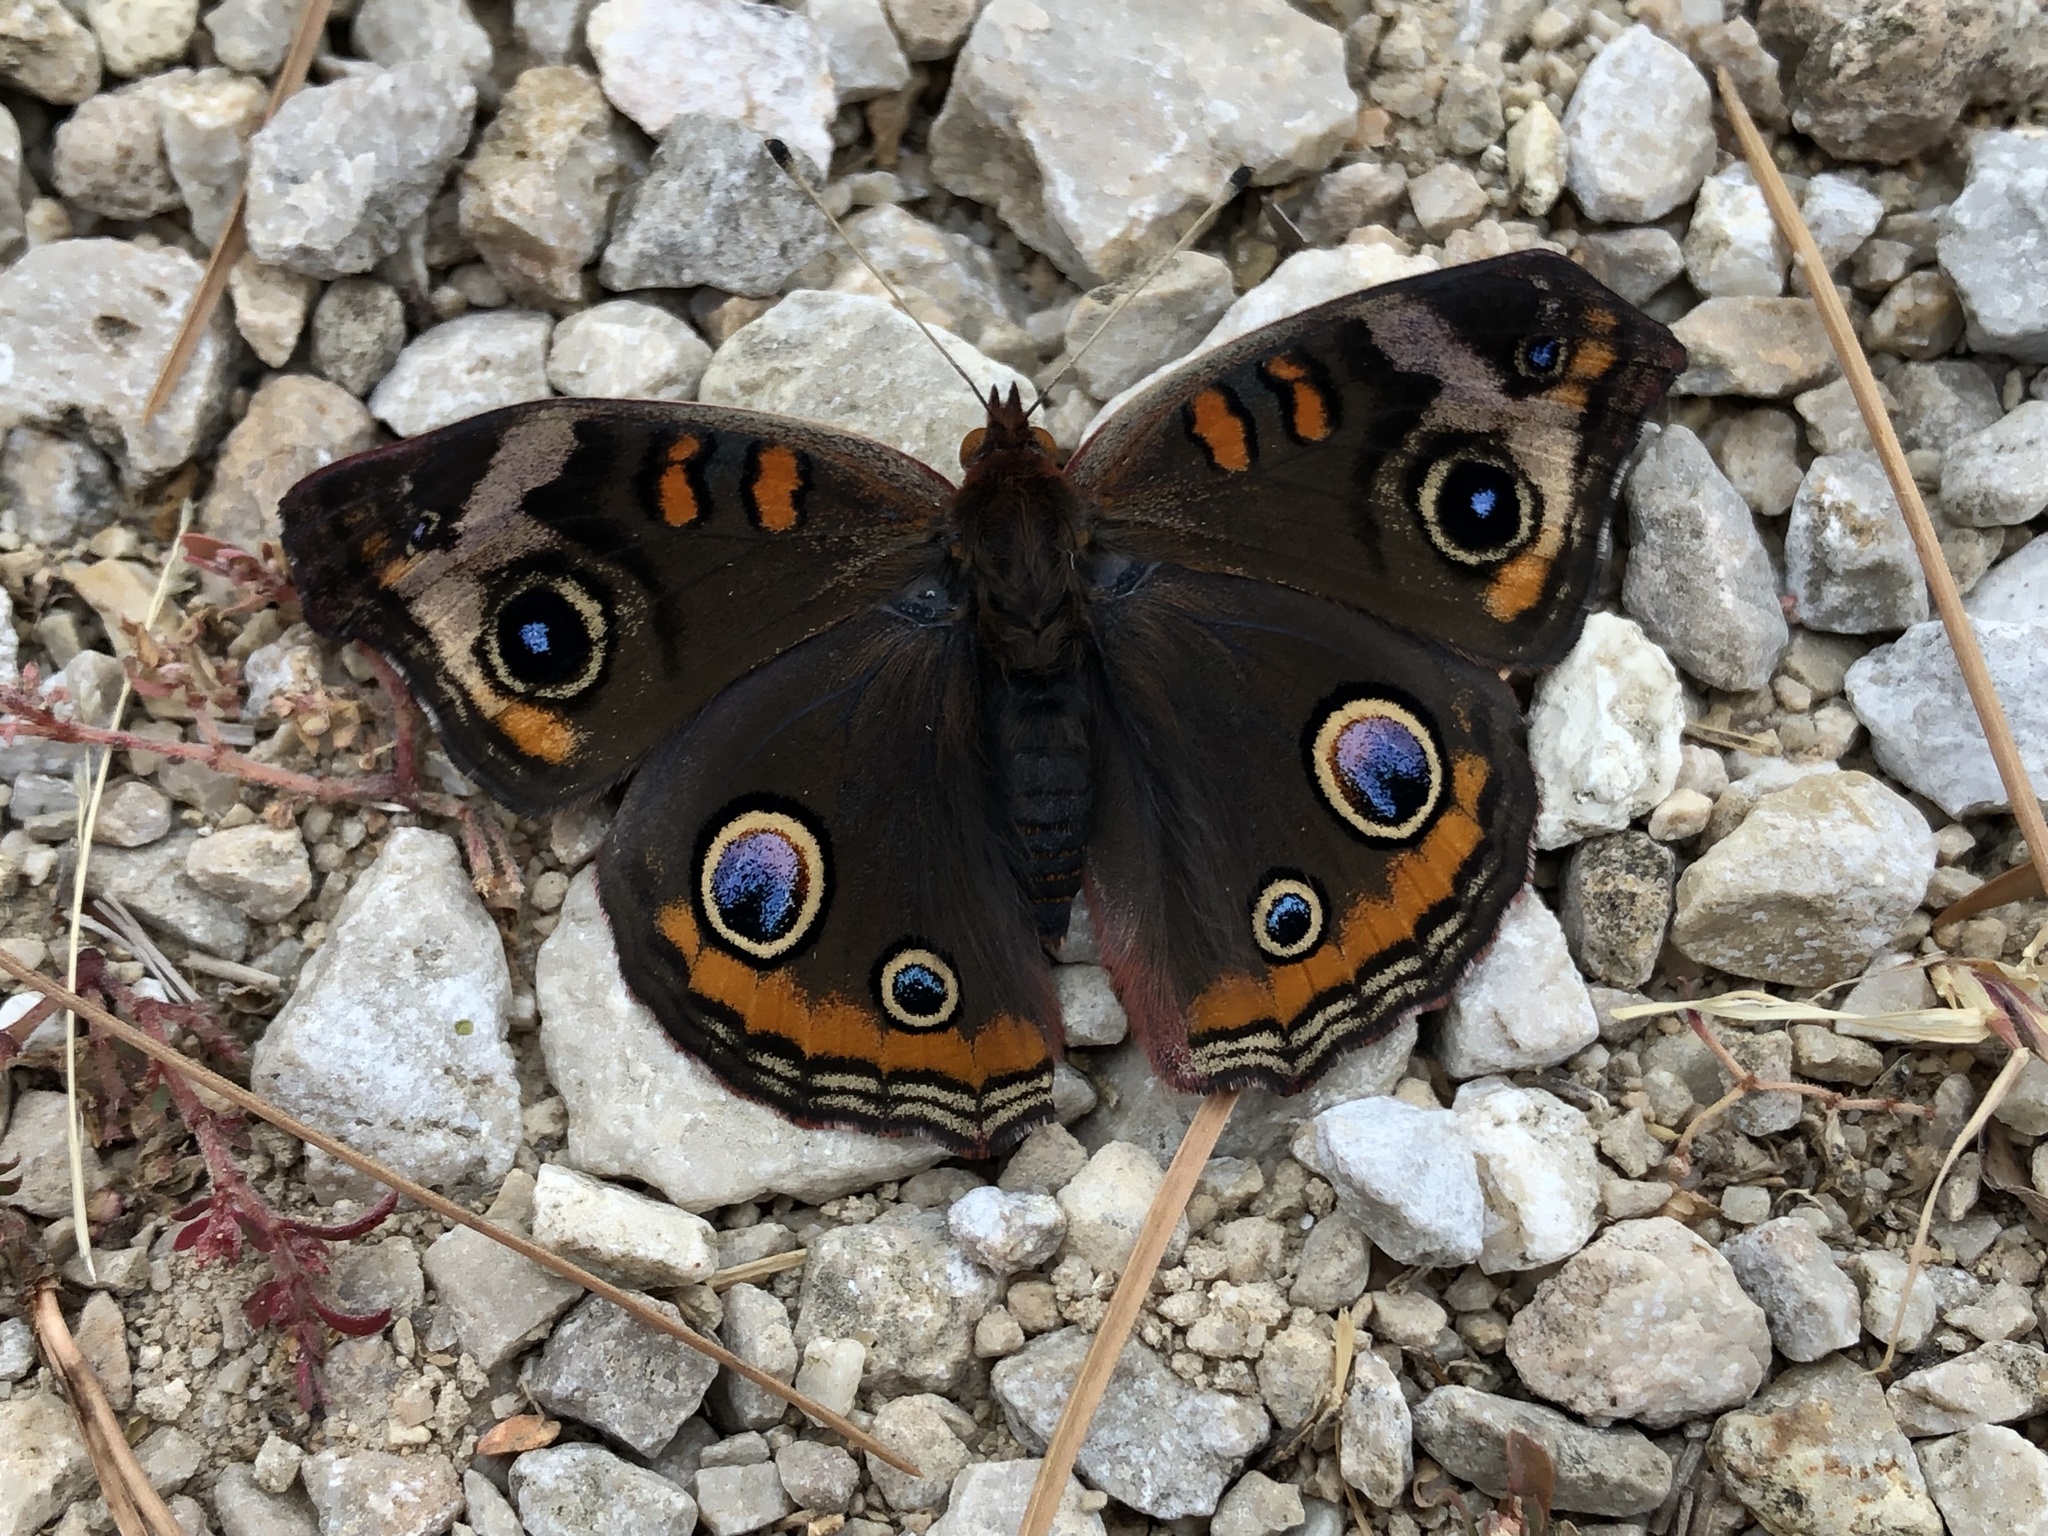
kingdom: Animalia
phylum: Arthropoda
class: Insecta
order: Lepidoptera
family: Nymphalidae
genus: Junonia
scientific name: Junonia coenia
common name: Common buckeye
